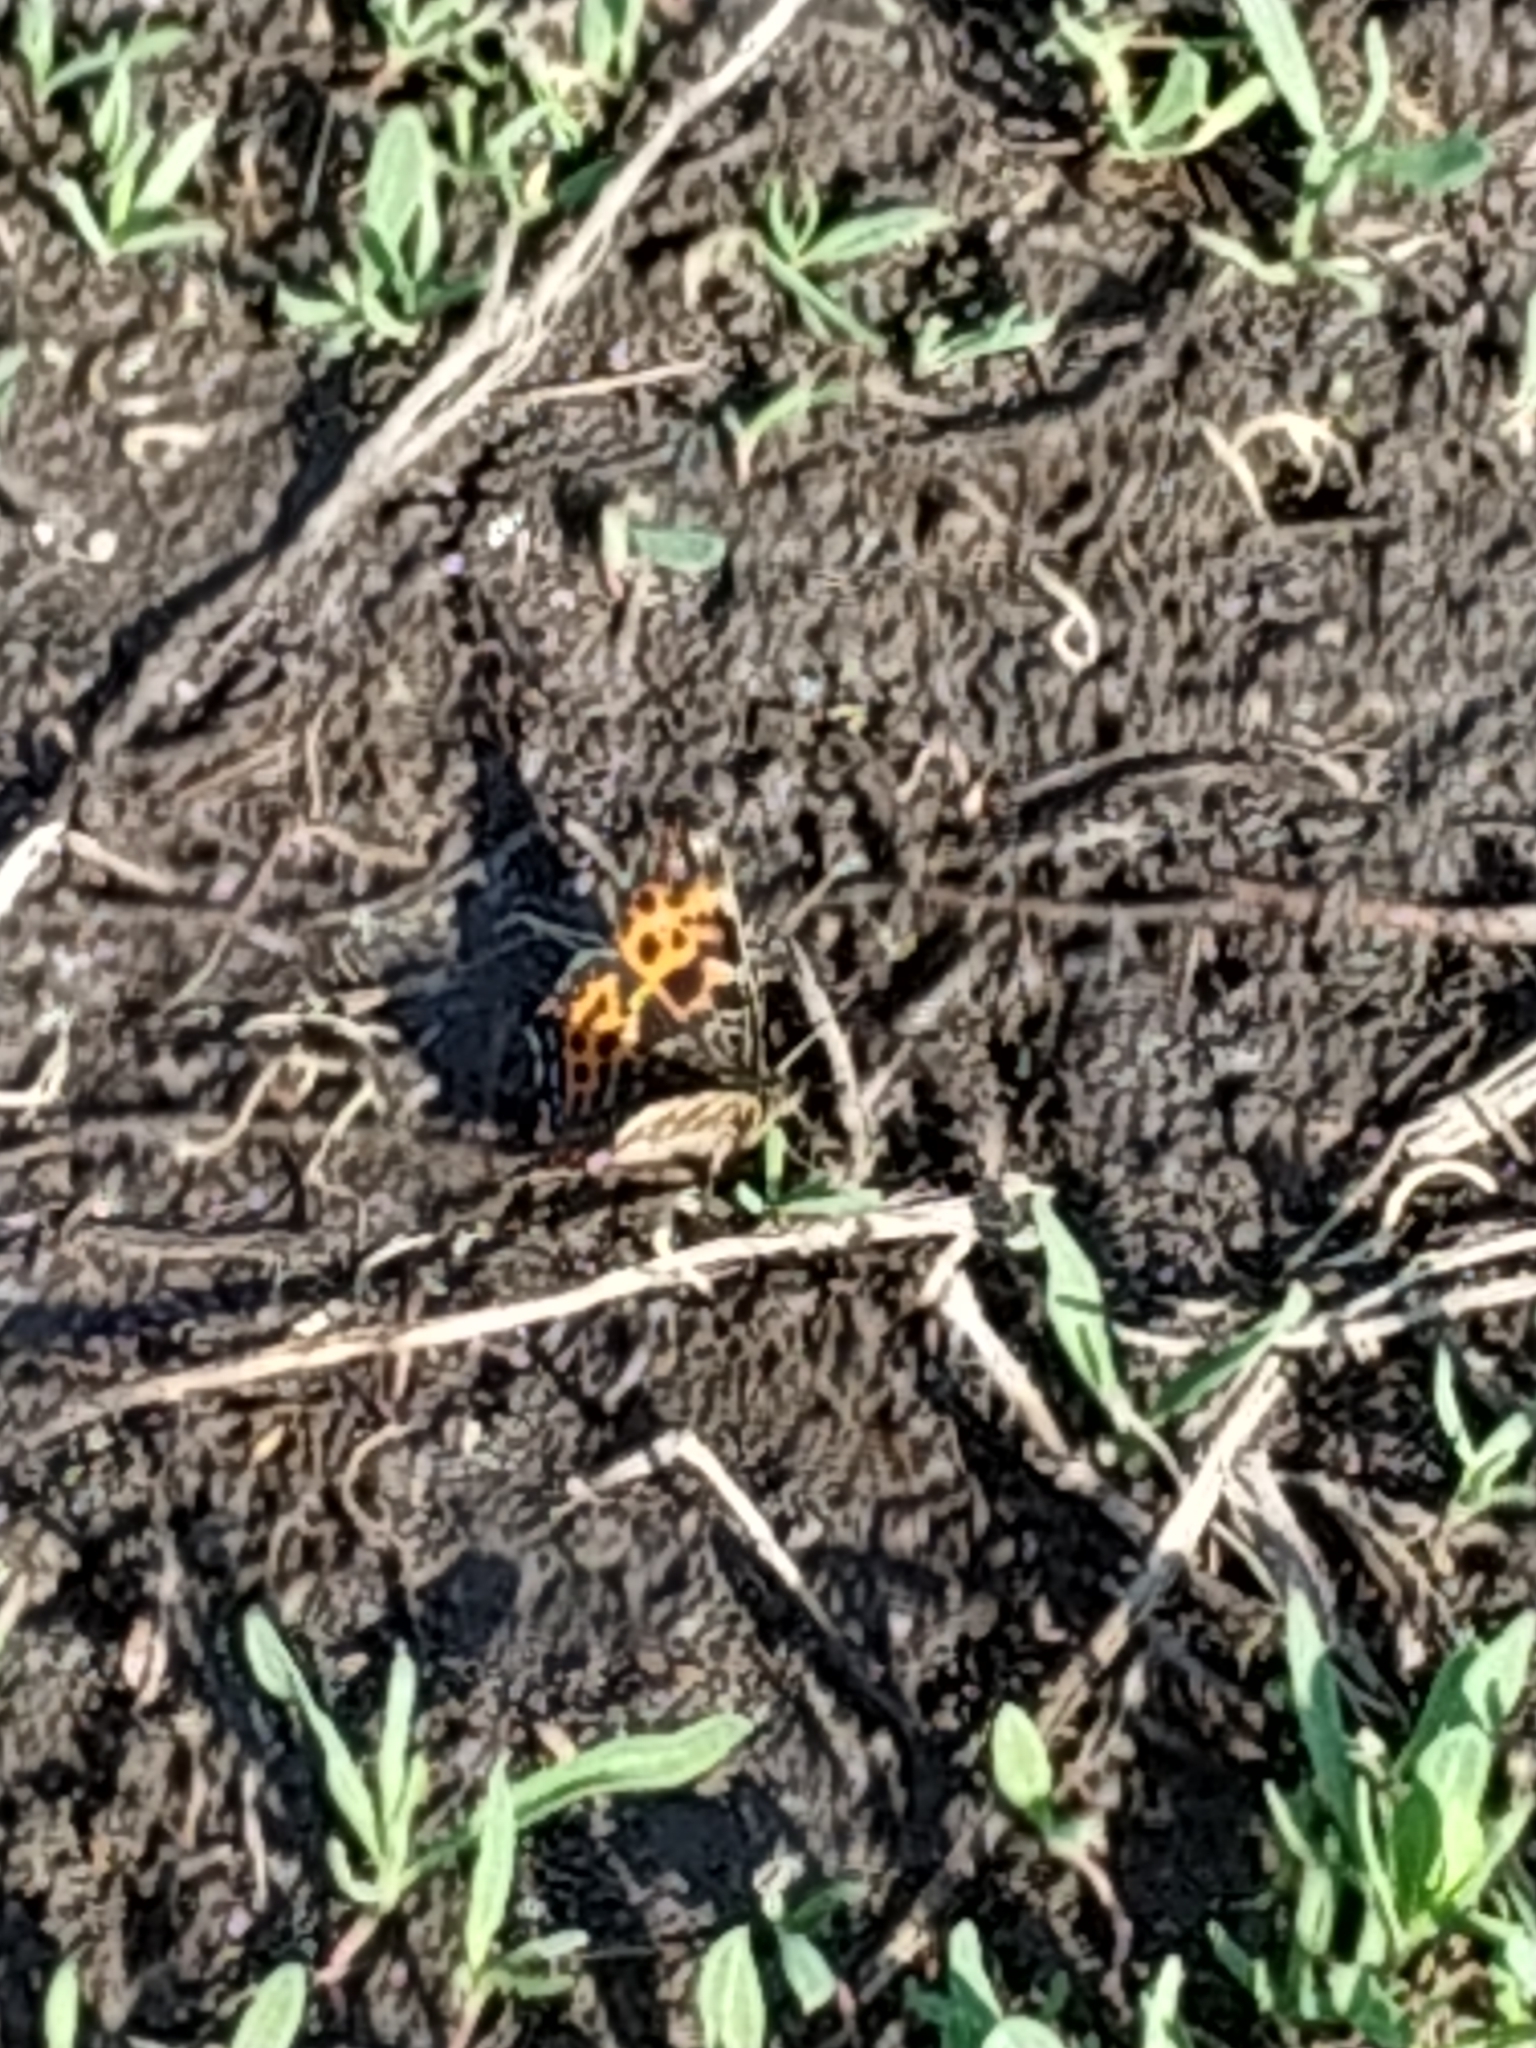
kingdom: Animalia
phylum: Arthropoda
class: Insecta
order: Lepidoptera
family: Nymphalidae
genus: Araschnia
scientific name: Araschnia levana
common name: Map butterfly
